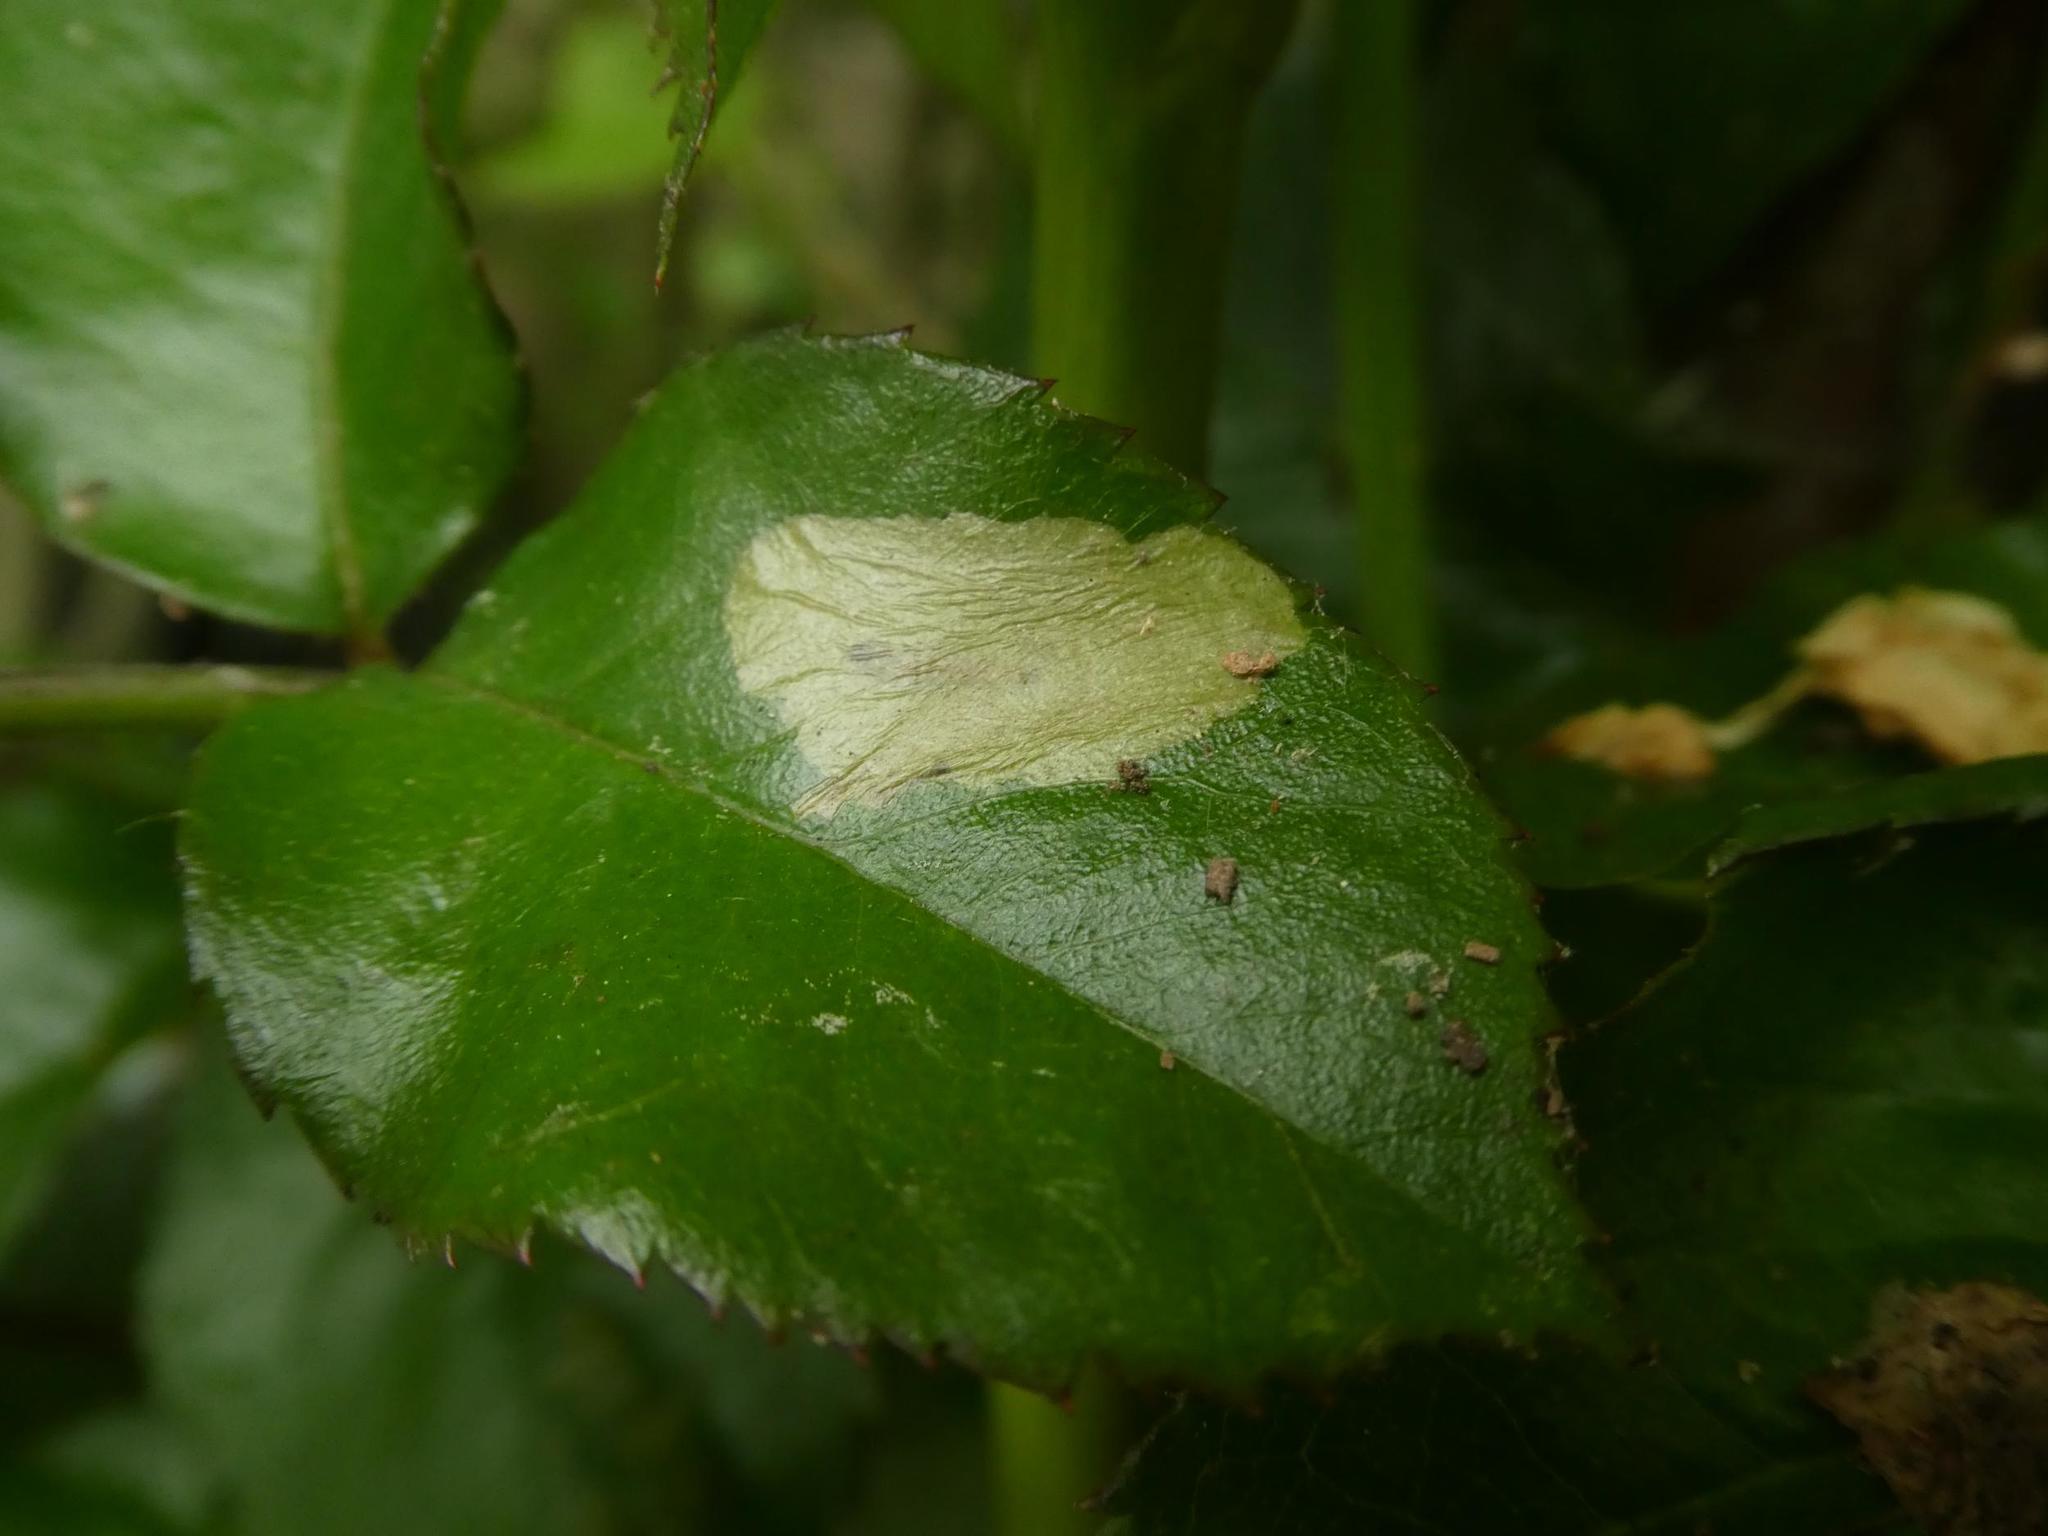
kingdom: Animalia
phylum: Arthropoda
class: Insecta
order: Lepidoptera
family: Tischeriidae
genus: Coptotriche
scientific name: Coptotriche angusticolella
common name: Rose carl
